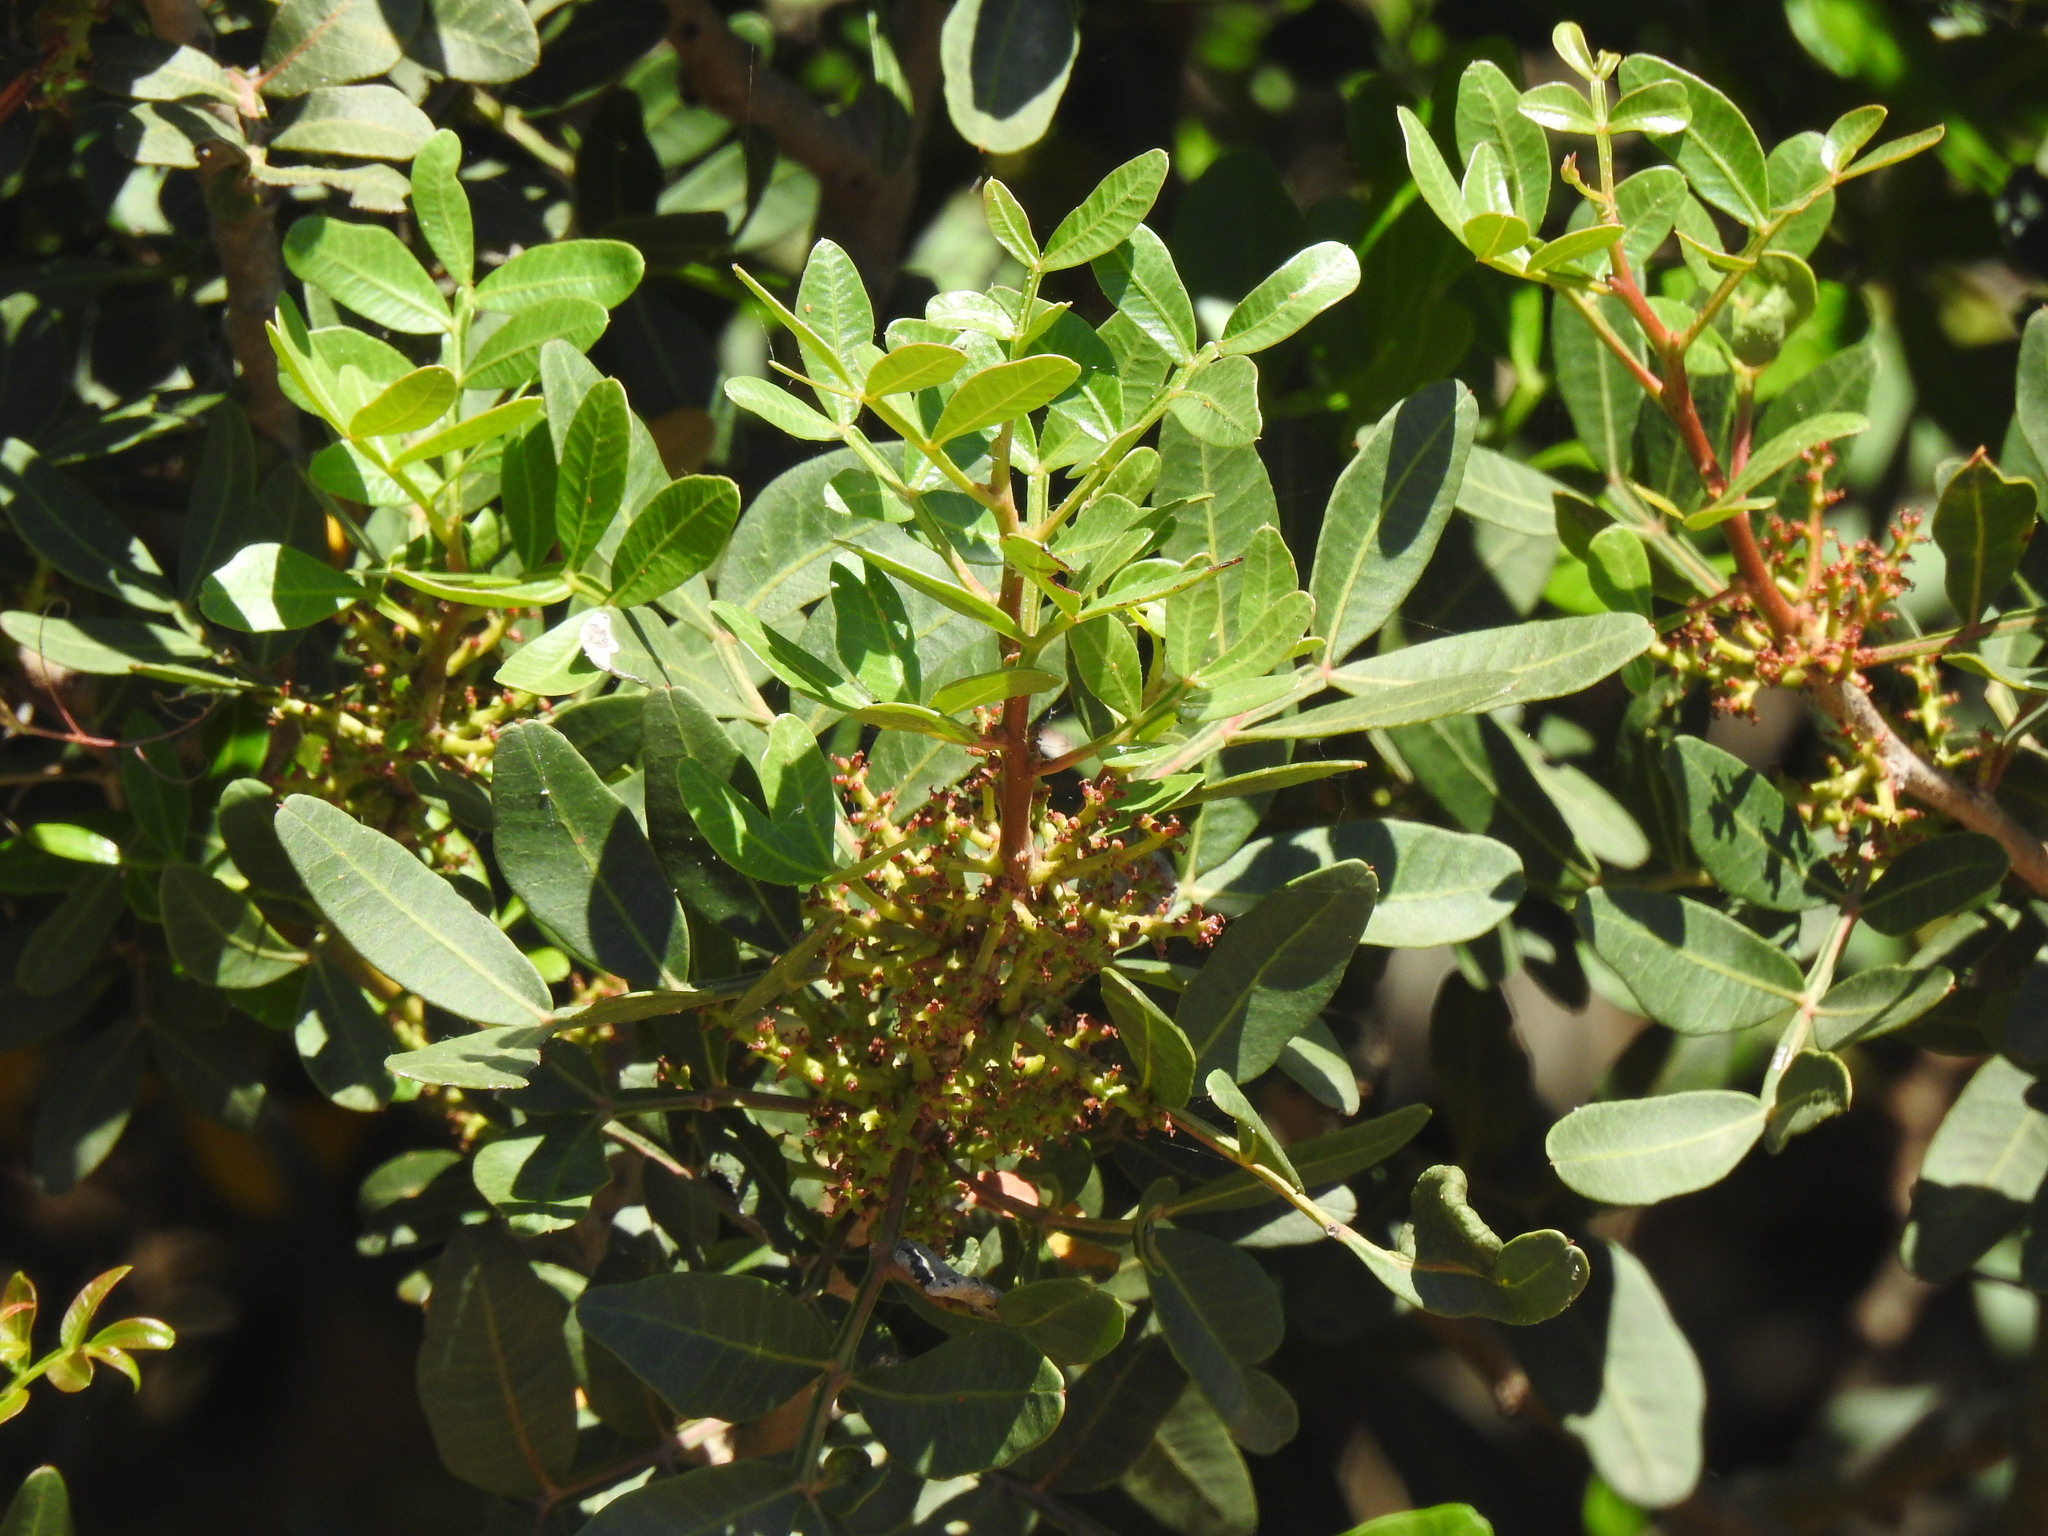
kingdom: Plantae
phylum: Tracheophyta
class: Magnoliopsida
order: Sapindales
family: Anacardiaceae
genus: Pistacia
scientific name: Pistacia lentiscus
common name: Lentisk
